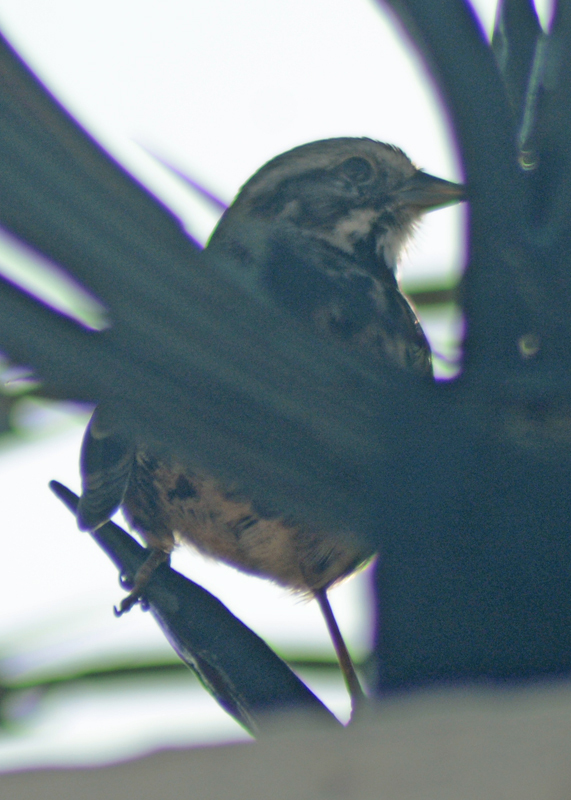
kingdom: Animalia
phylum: Chordata
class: Aves
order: Passeriformes
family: Passerellidae
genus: Melospiza
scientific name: Melospiza melodia
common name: Song sparrow
